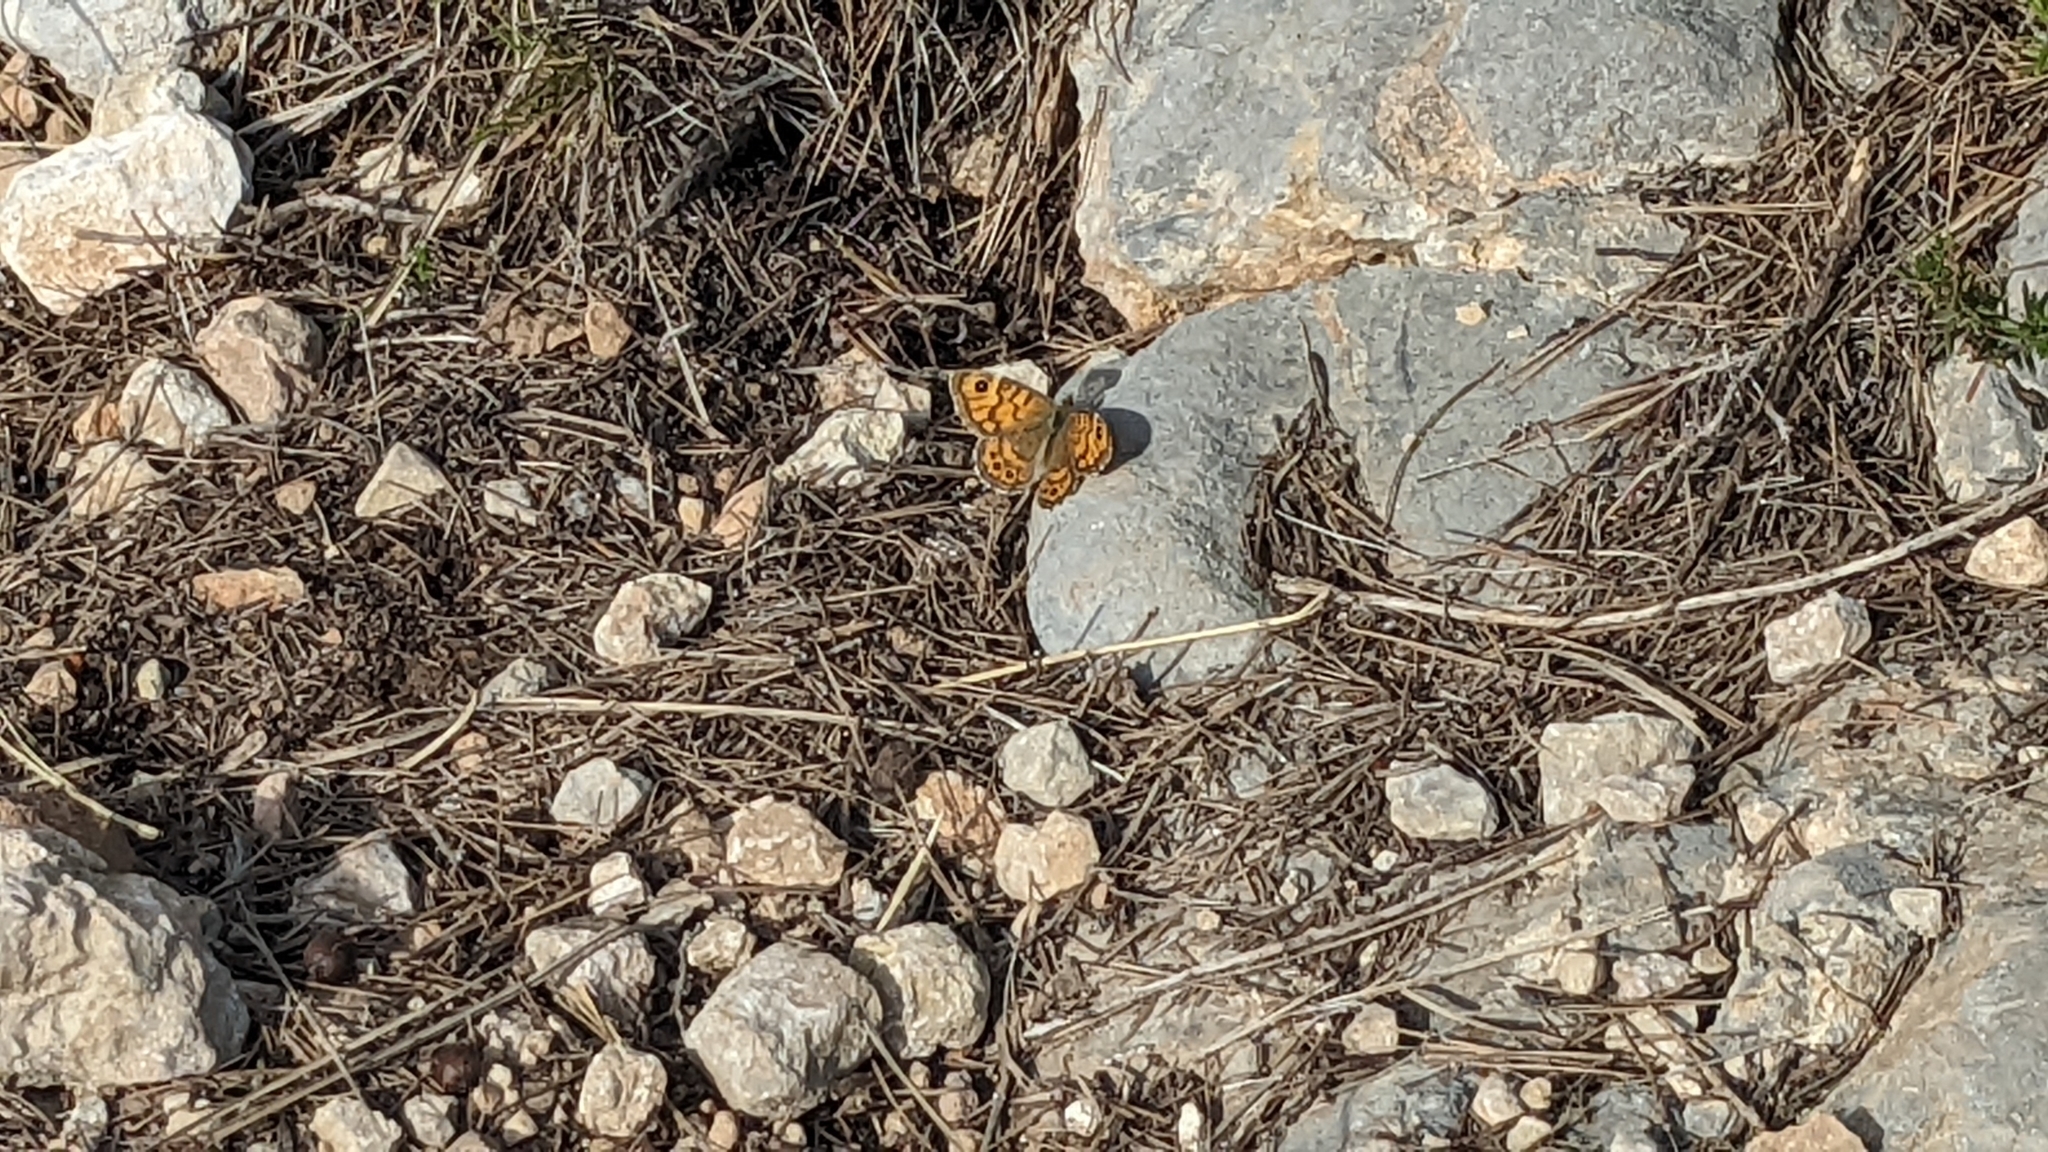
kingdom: Animalia
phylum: Arthropoda
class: Insecta
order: Lepidoptera
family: Nymphalidae
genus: Pararge
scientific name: Pararge Lasiommata megera
